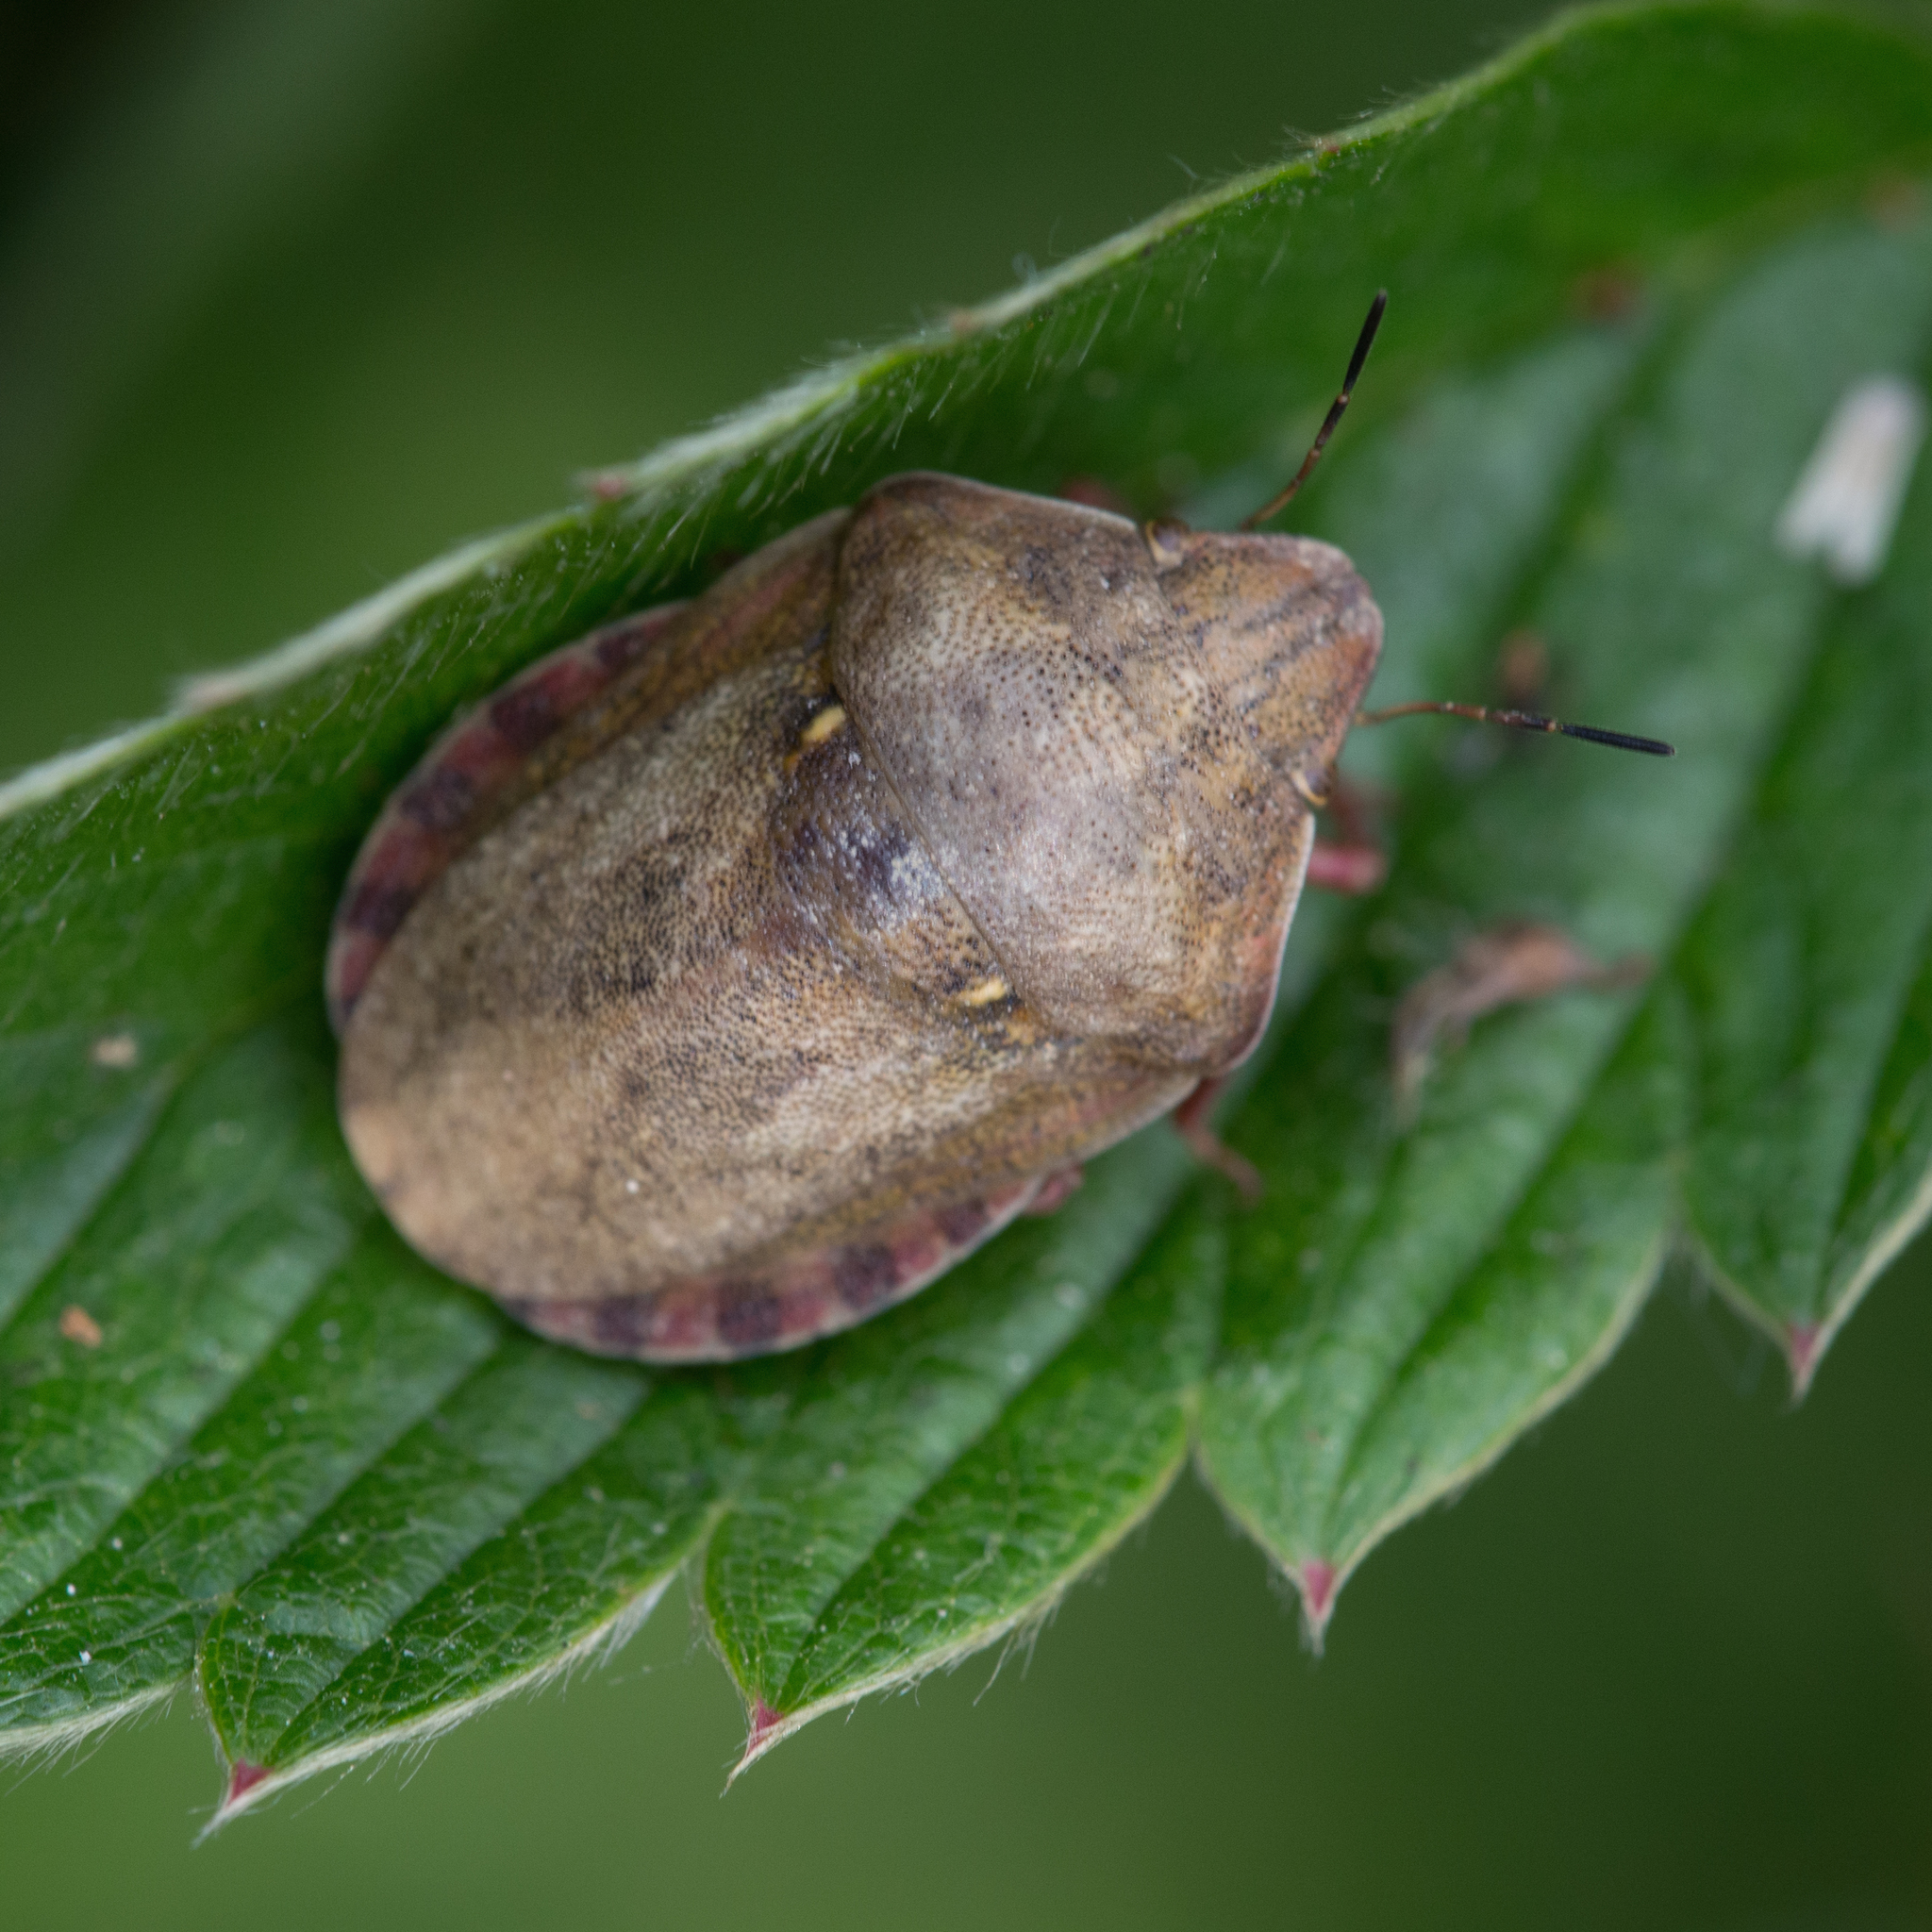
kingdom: Animalia
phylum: Arthropoda
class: Insecta
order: Hemiptera
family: Scutelleridae
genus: Eurygaster
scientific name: Eurygaster maura
